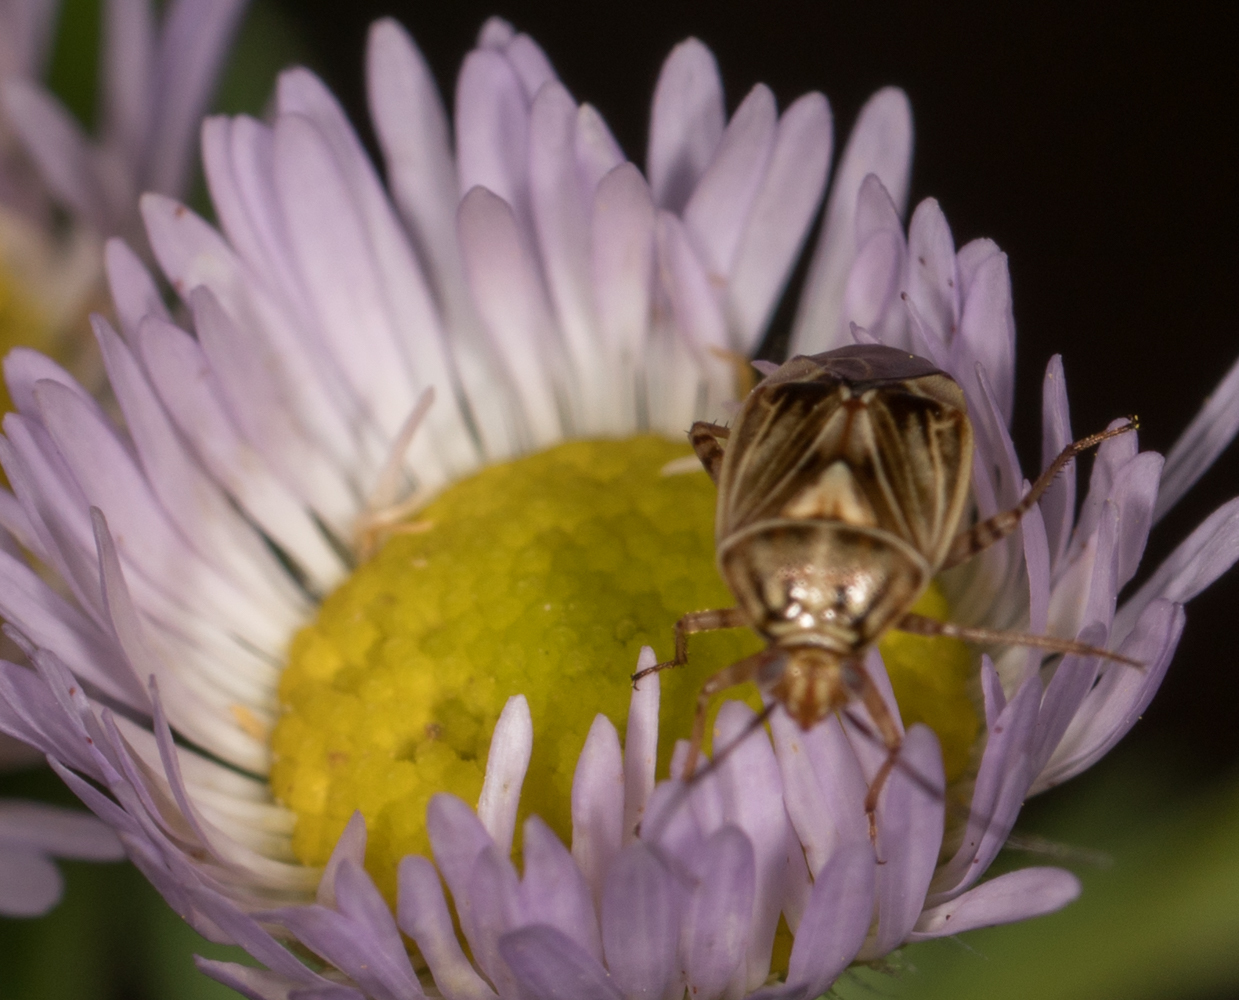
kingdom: Animalia
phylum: Arthropoda
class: Insecta
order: Hemiptera
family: Miridae
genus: Lygus
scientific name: Lygus lineolaris
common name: North american tarnished plant bug
